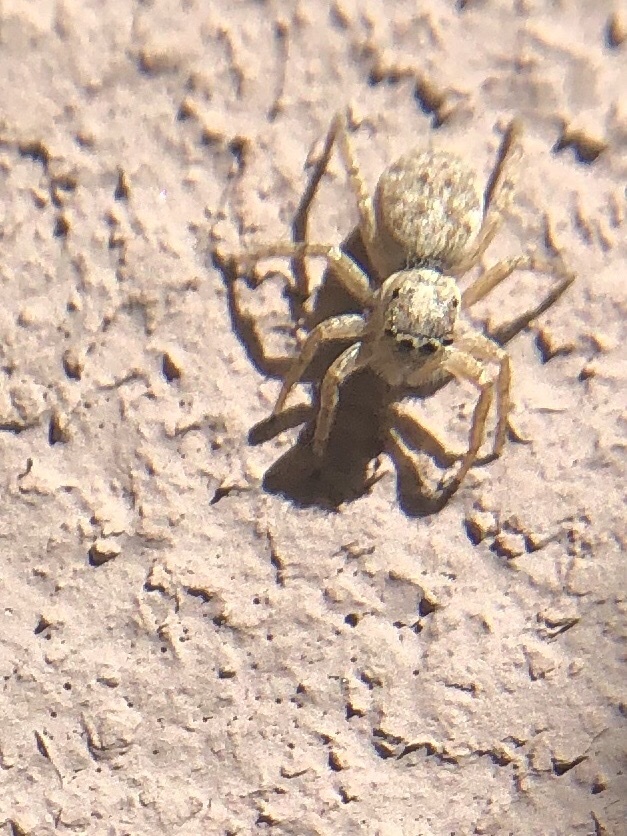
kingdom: Animalia
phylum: Arthropoda
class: Arachnida
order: Araneae
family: Salticidae
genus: Menemerus
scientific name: Menemerus semilimbatus
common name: Jumping spider
